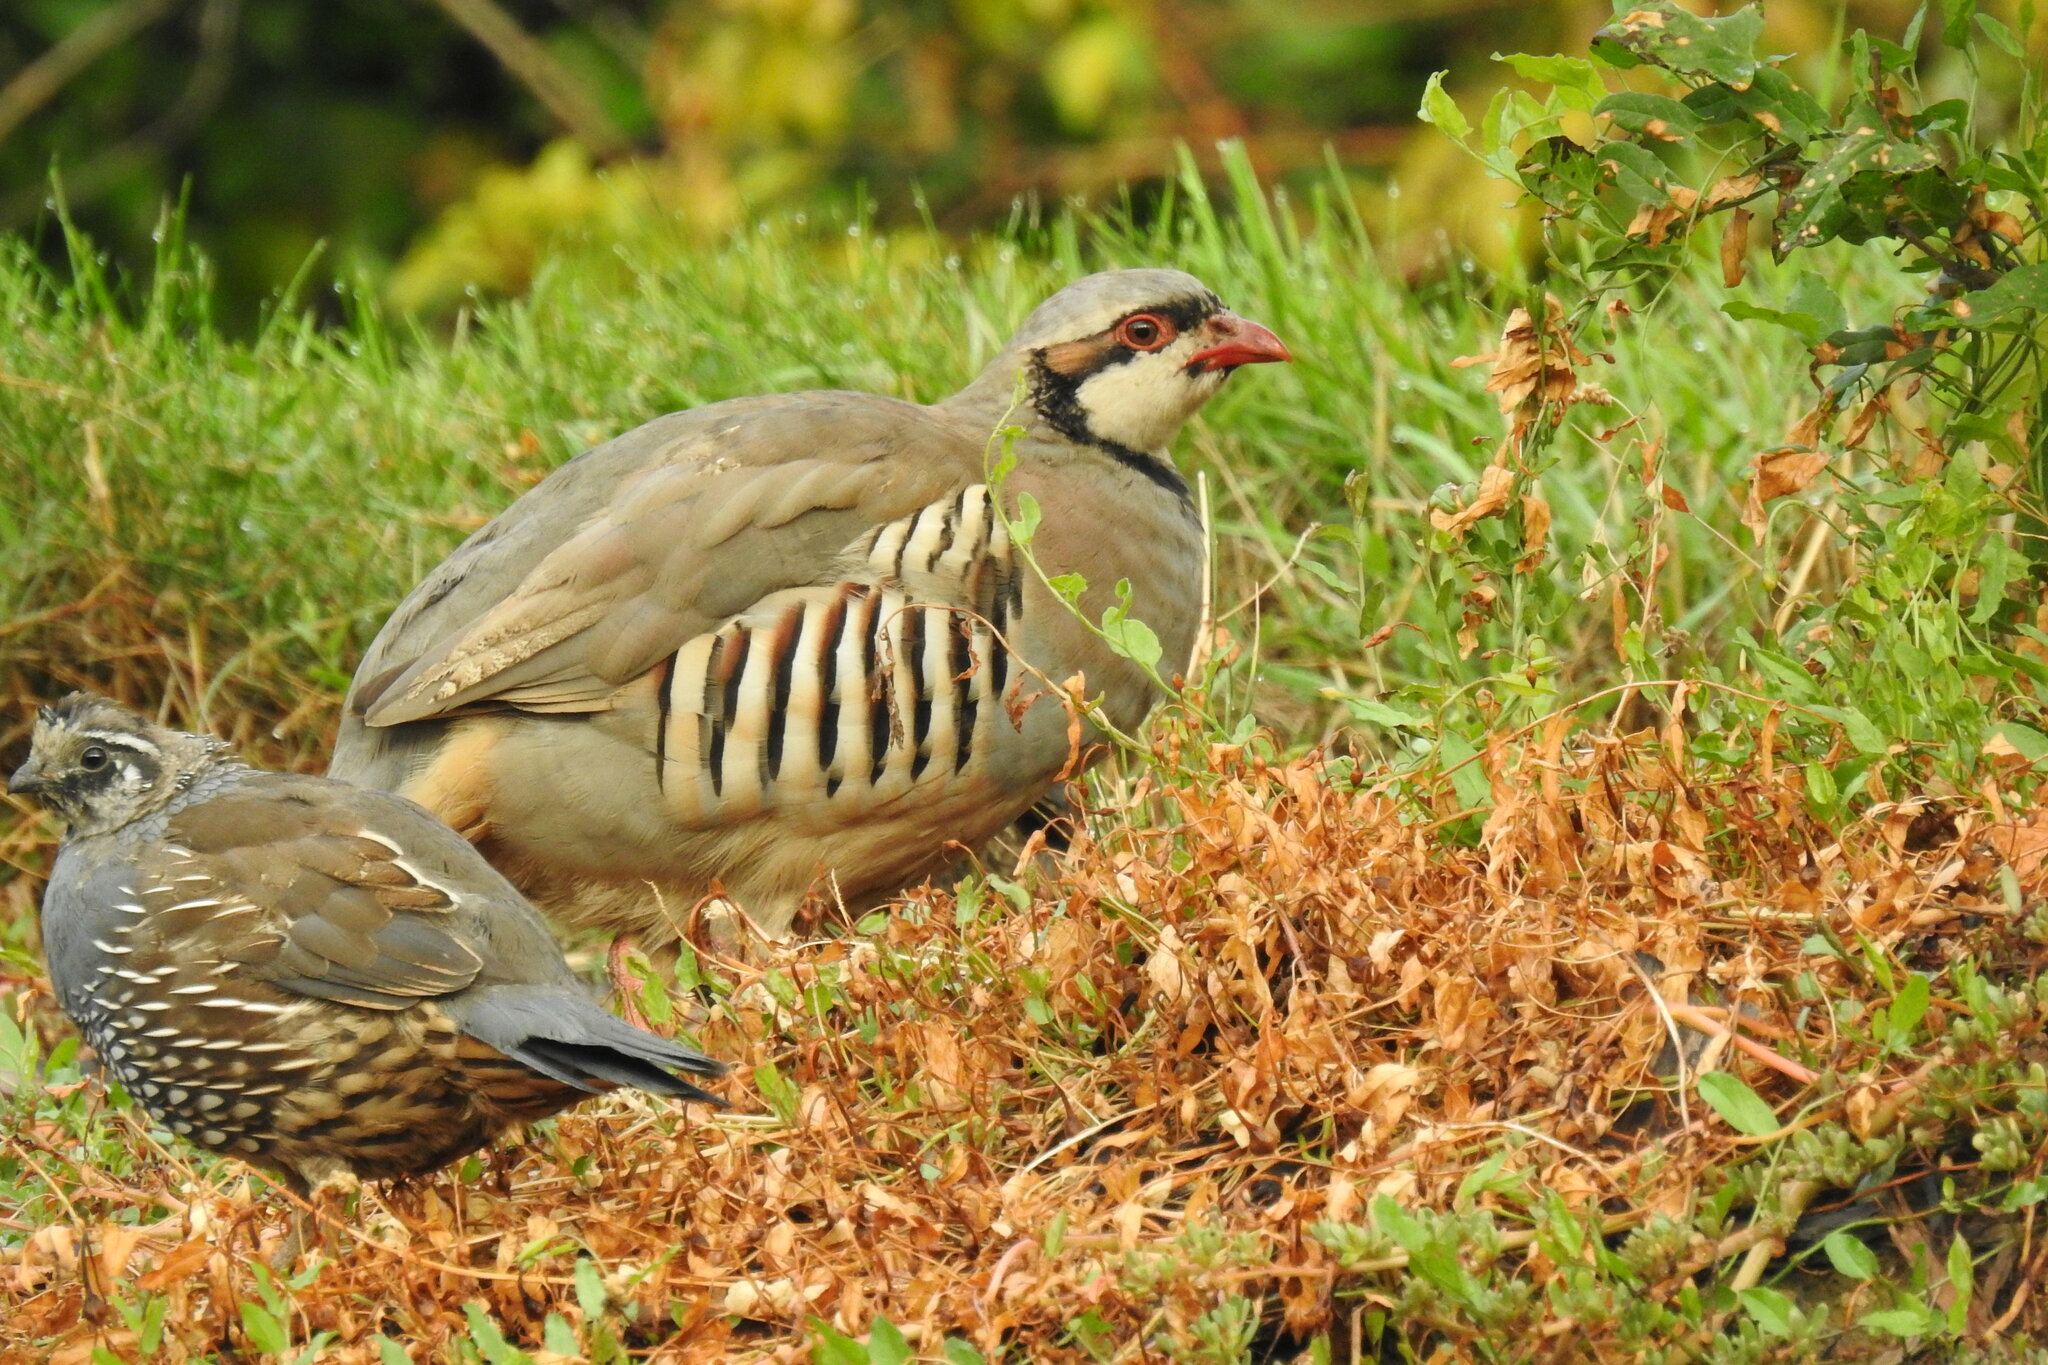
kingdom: Animalia
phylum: Chordata
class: Aves
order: Galliformes
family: Phasianidae
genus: Alectoris
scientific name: Alectoris chukar
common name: Chukar
